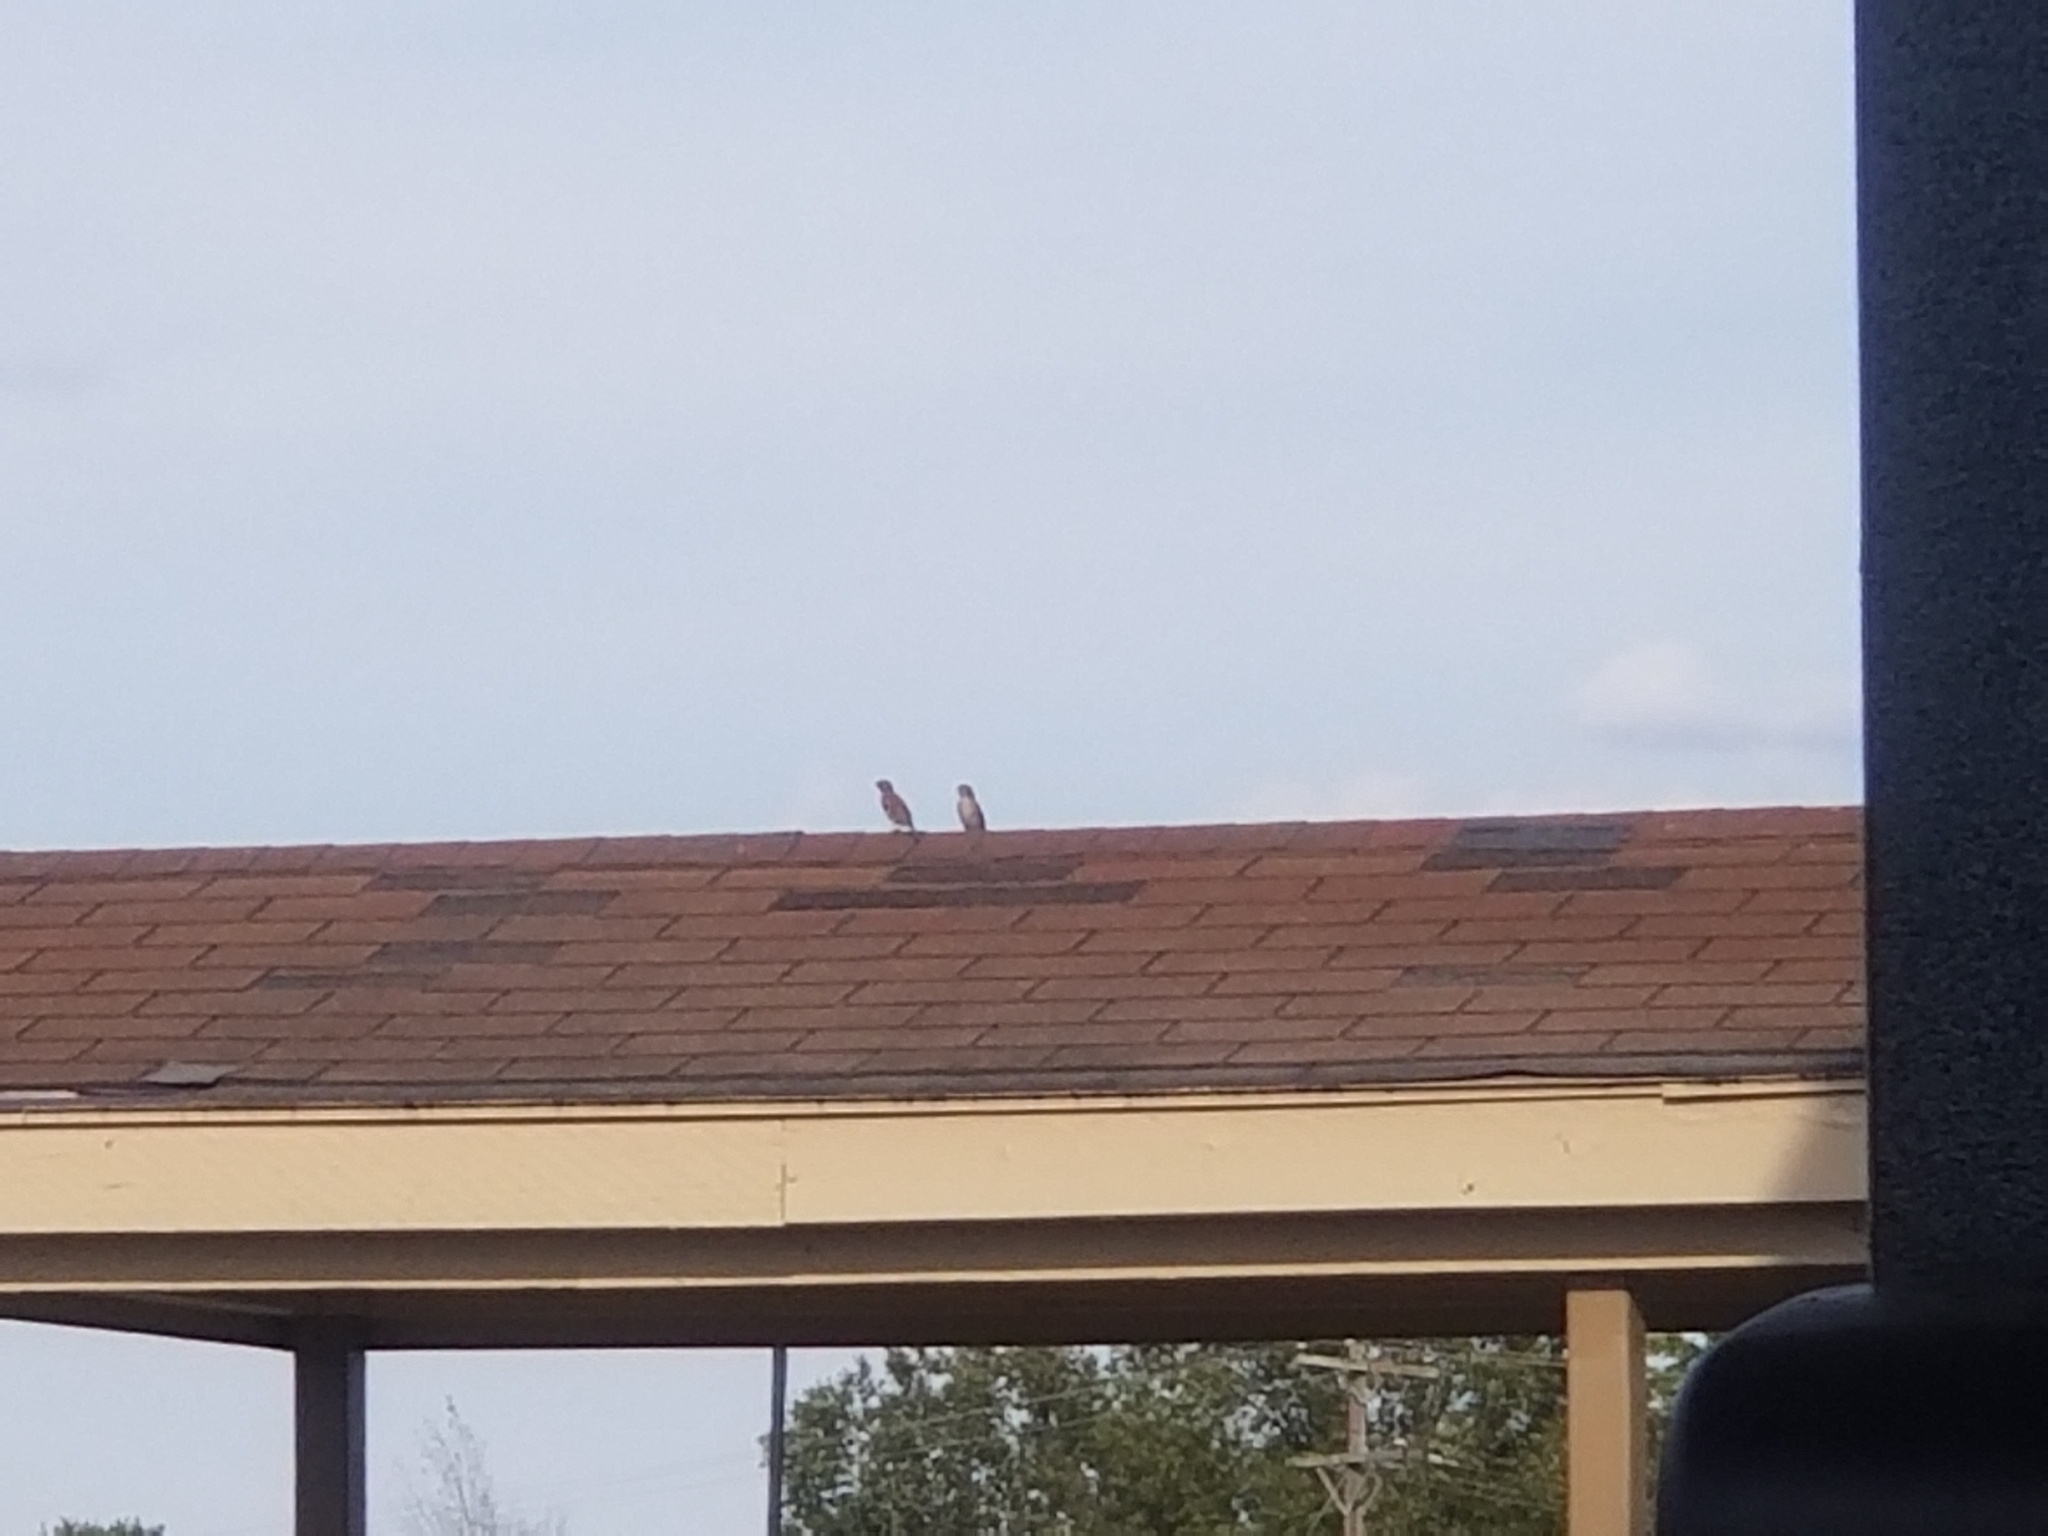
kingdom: Animalia
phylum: Chordata
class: Aves
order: Passeriformes
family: Passeridae
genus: Passer
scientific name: Passer domesticus
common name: House sparrow
